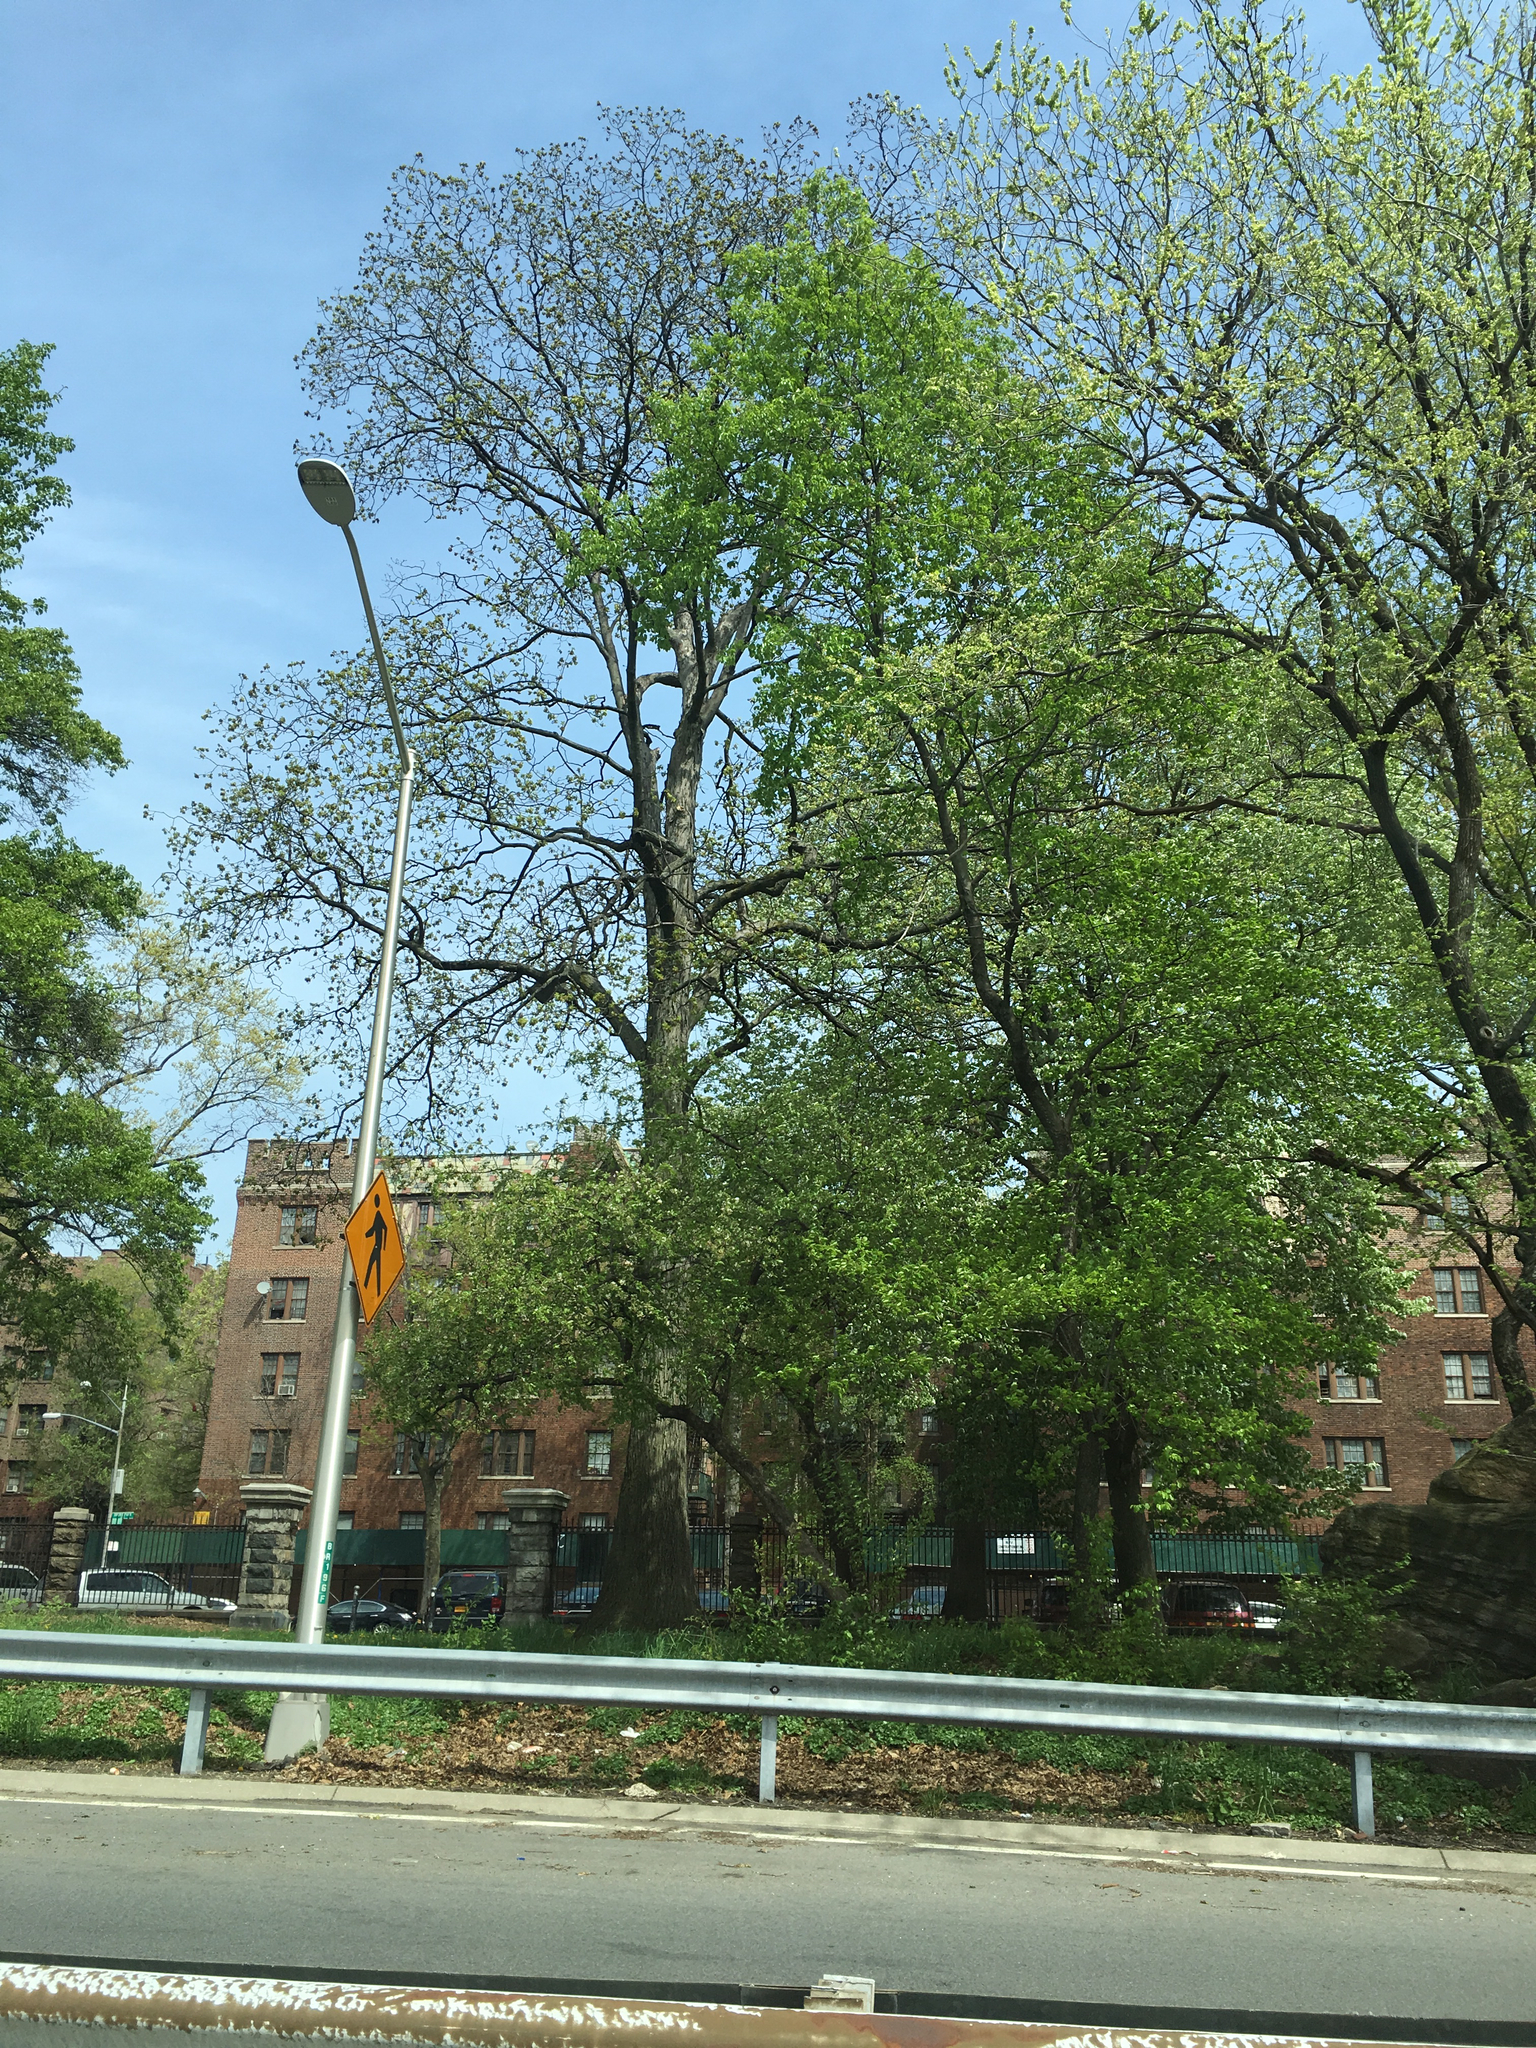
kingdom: Plantae
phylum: Tracheophyta
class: Magnoliopsida
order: Fagales
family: Juglandaceae
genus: Carya
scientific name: Carya ovata
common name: Shagbark hickory
